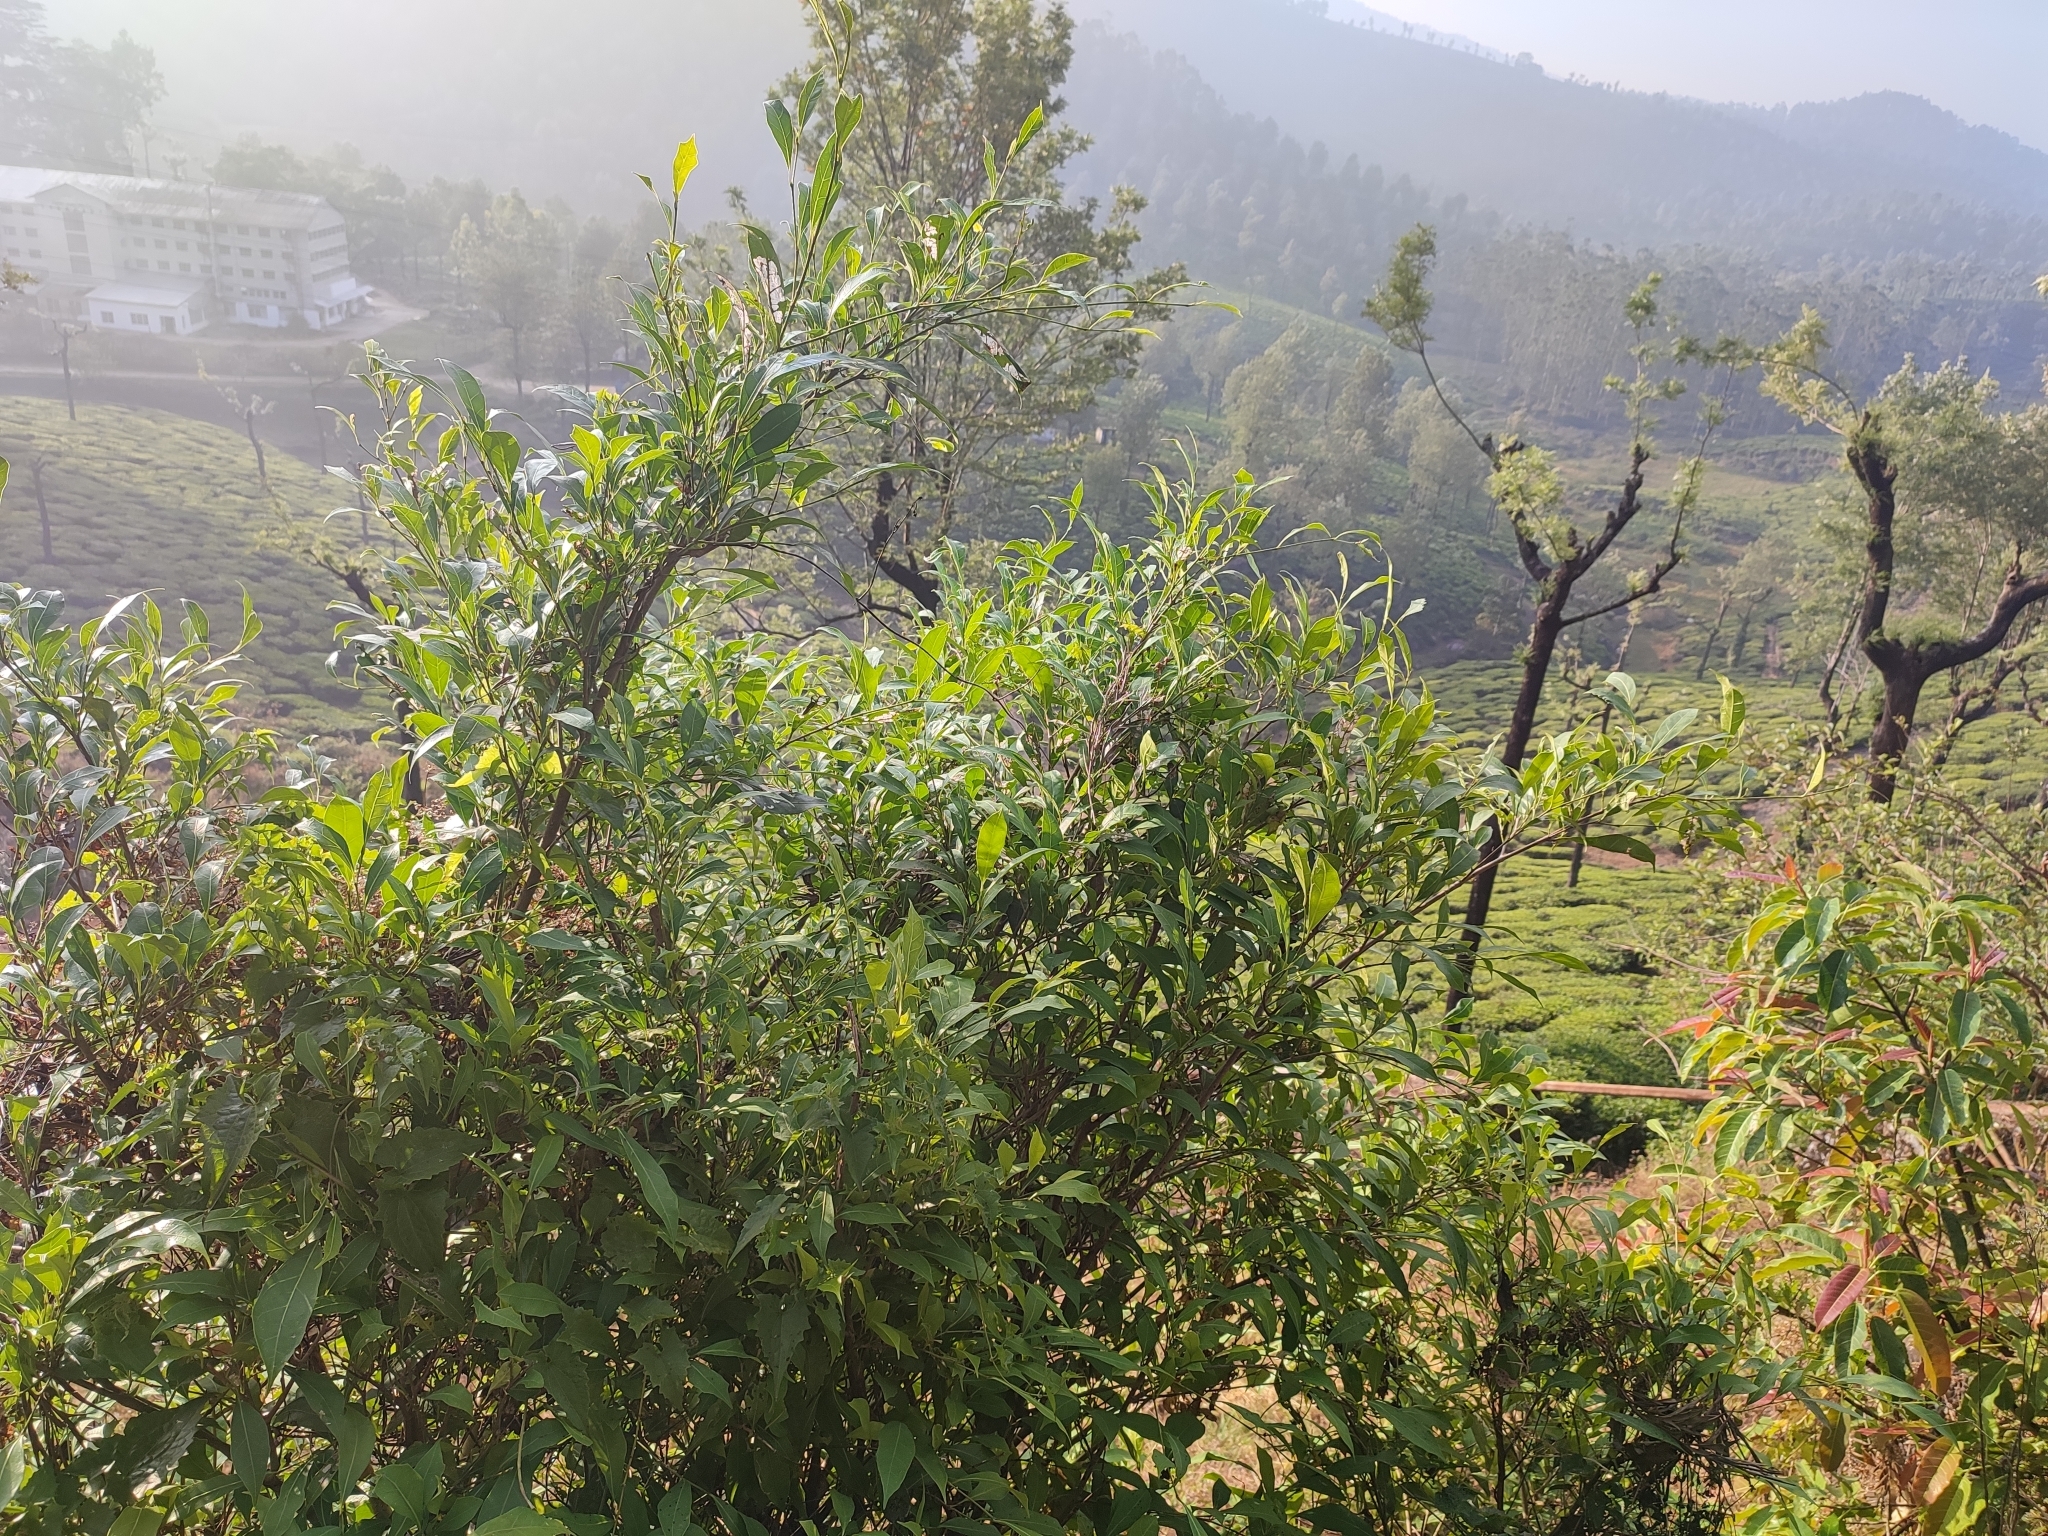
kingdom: Plantae
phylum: Tracheophyta
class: Magnoliopsida
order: Rosales
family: Moraceae
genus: Ficus
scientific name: Ficus tinctoria
